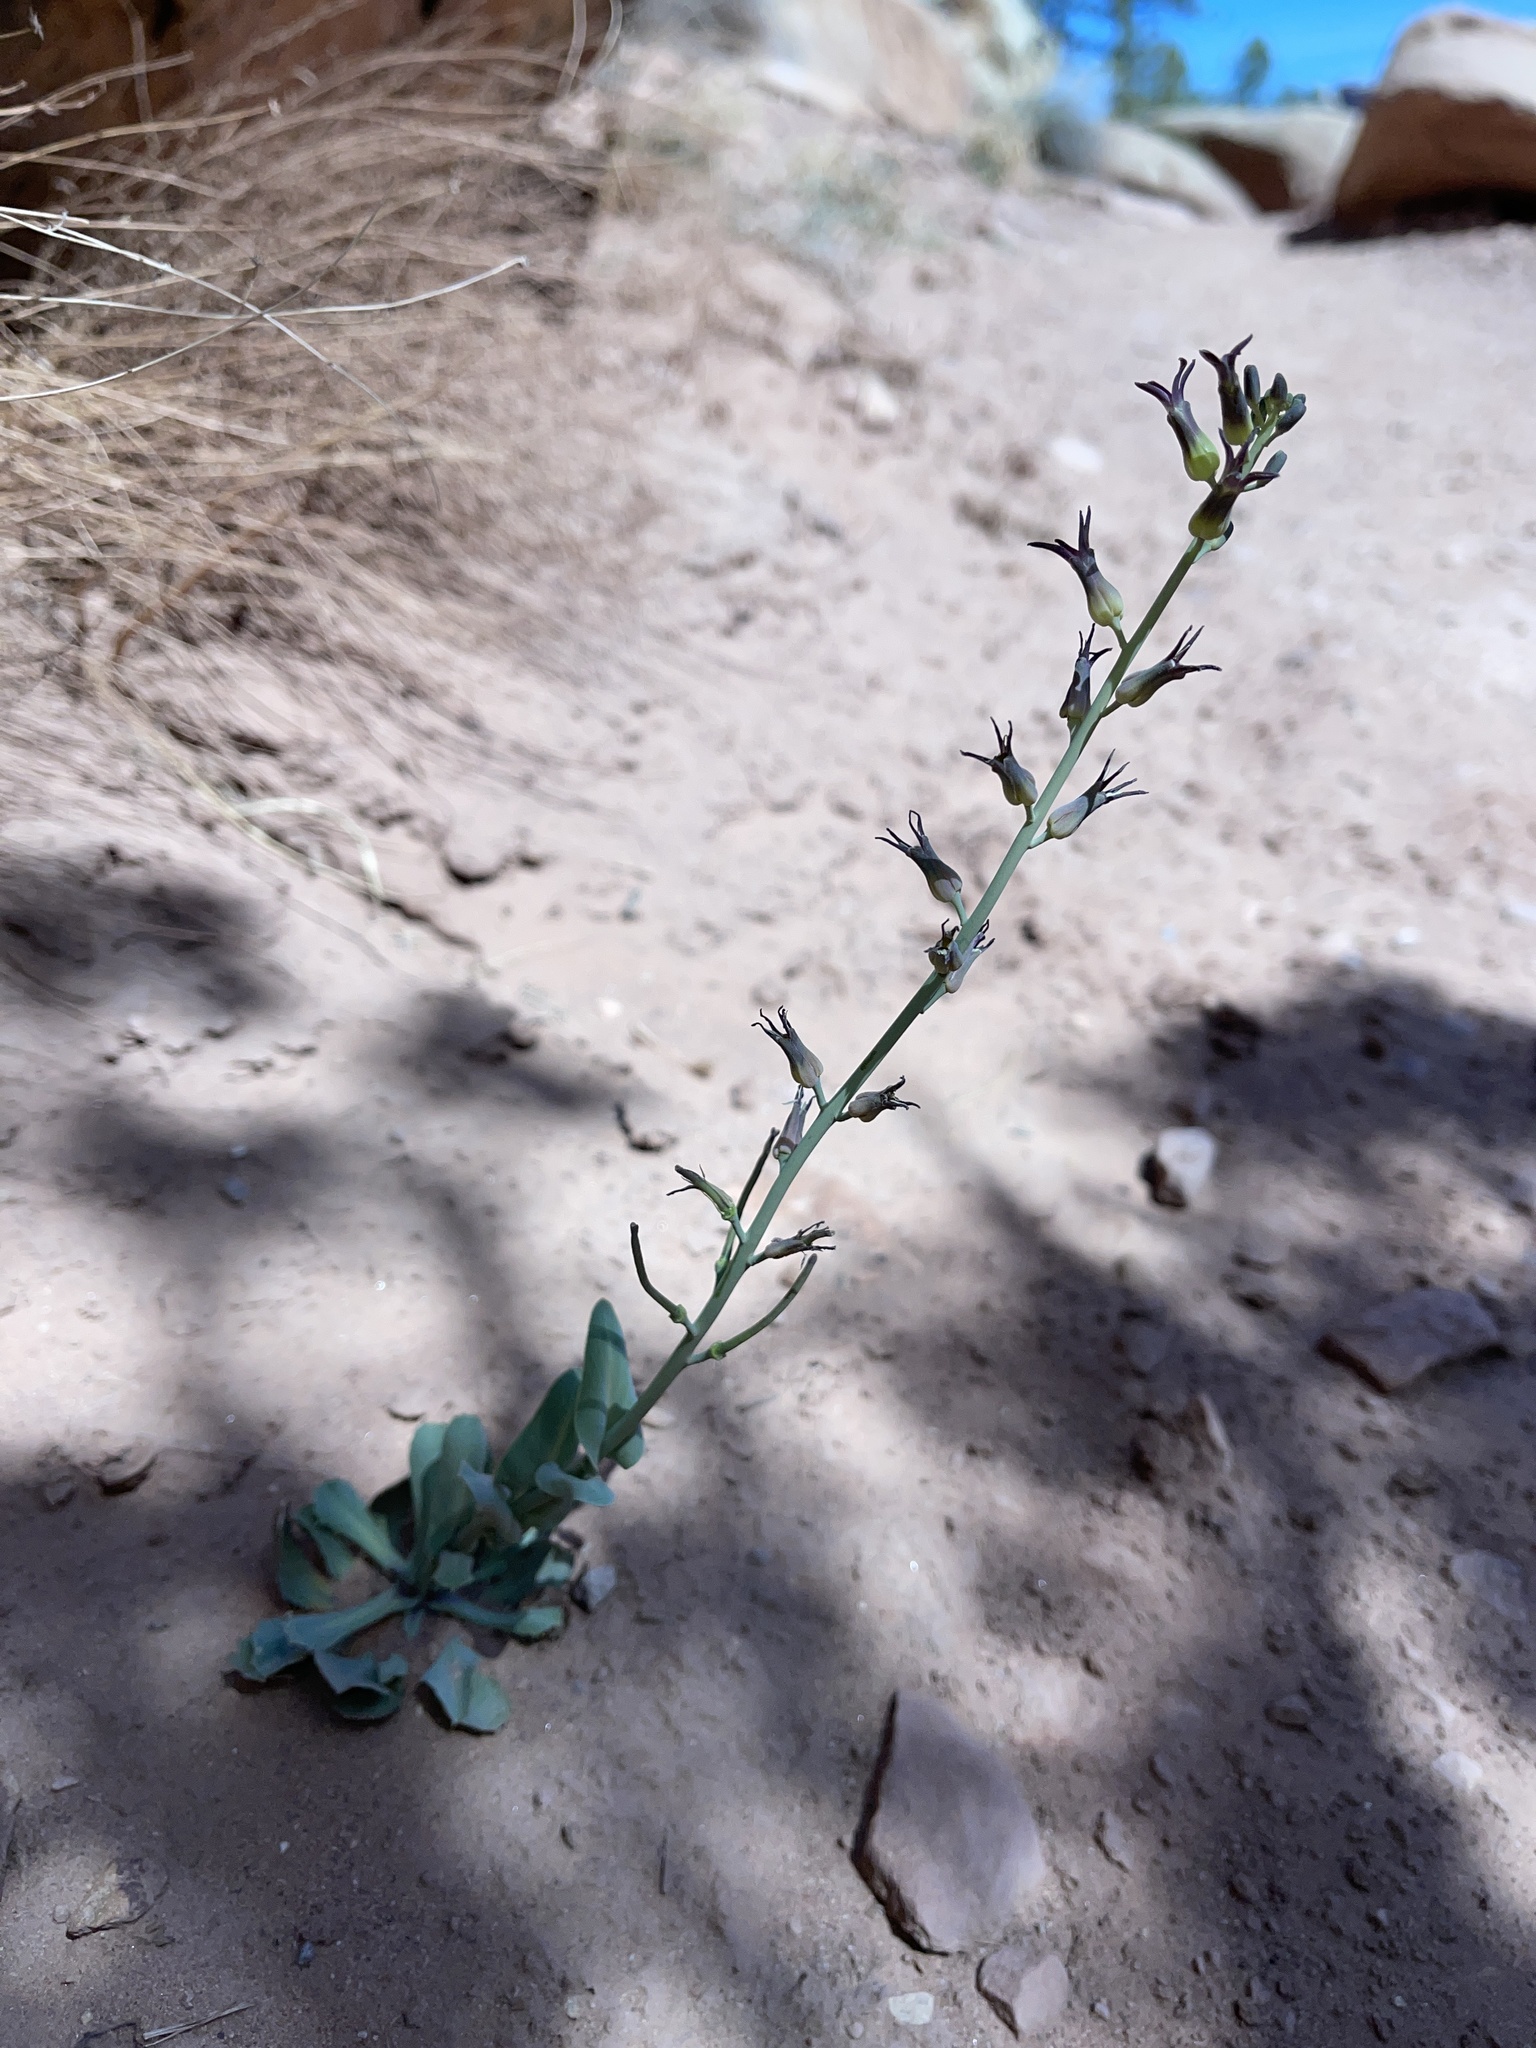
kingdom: Plantae
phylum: Tracheophyta
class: Magnoliopsida
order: Brassicales
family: Brassicaceae
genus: Streptanthus
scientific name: Streptanthus cordatus
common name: Heart-leaf jewel-flower
